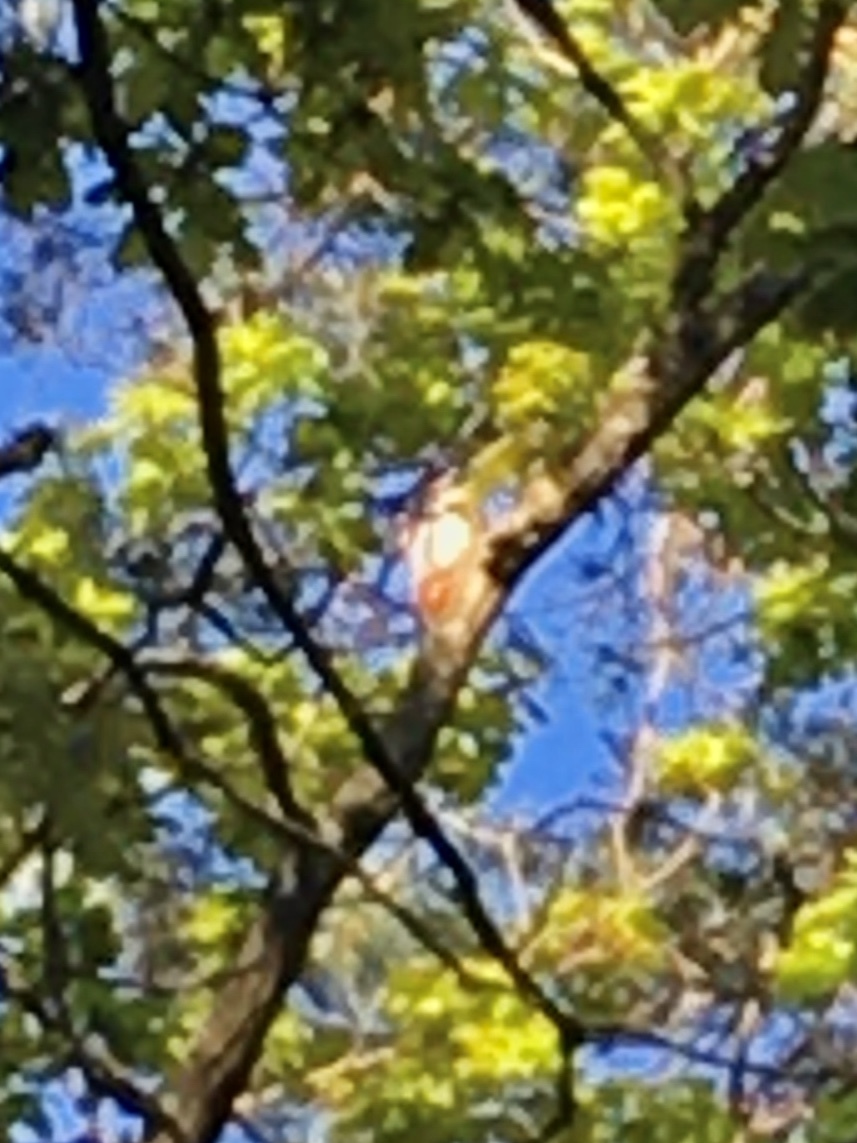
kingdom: Animalia
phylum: Chordata
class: Aves
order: Passeriformes
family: Phylloscopidae
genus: Phylloscopus
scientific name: Phylloscopus sibillatrix
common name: Wood warbler
